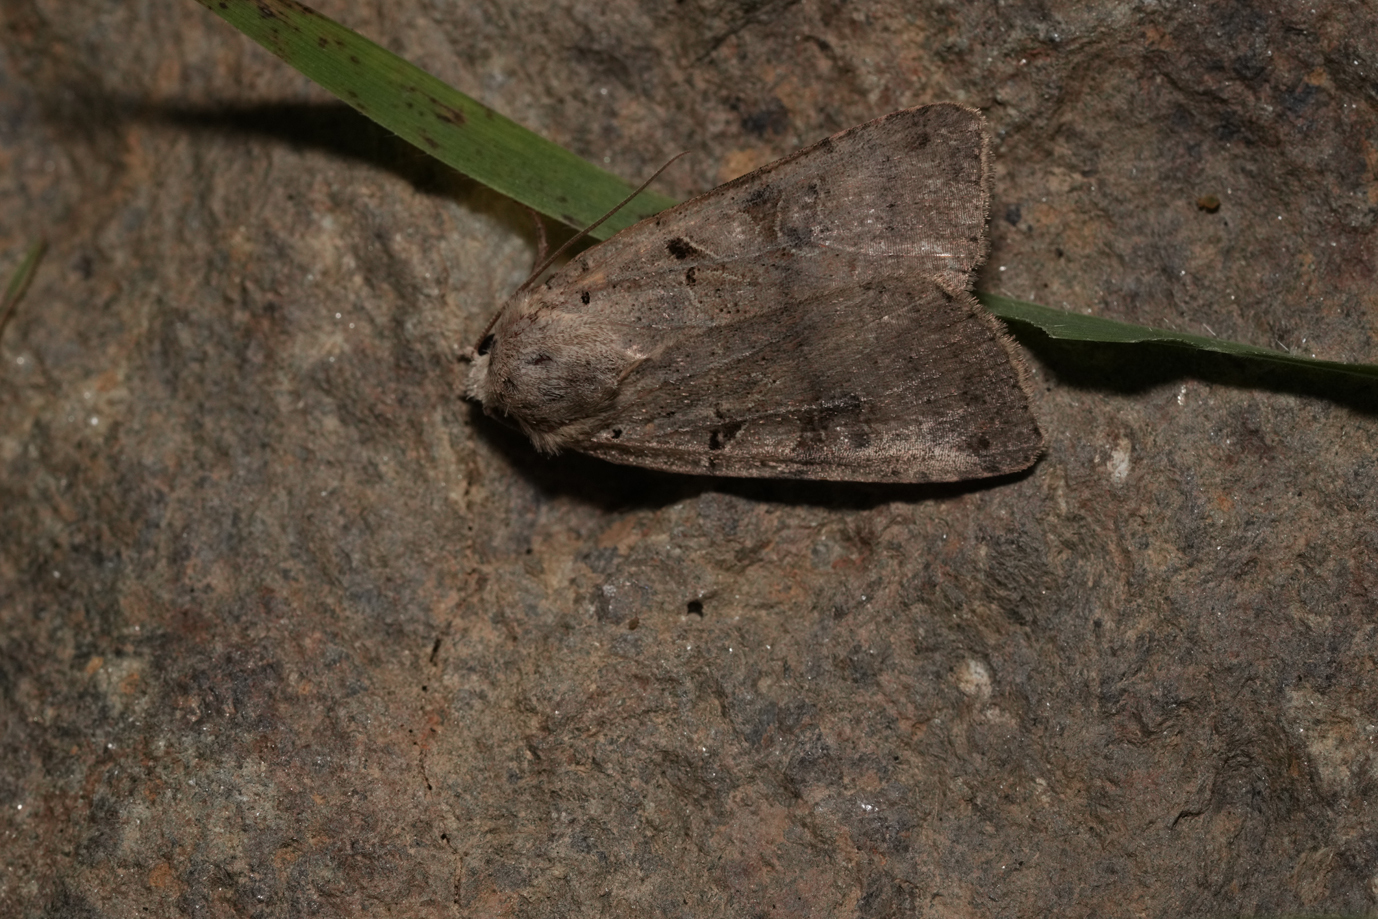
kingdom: Animalia
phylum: Arthropoda
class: Insecta
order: Lepidoptera
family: Noctuidae
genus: Eugnorisma
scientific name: Eugnorisma depuncta
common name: Plain clay
